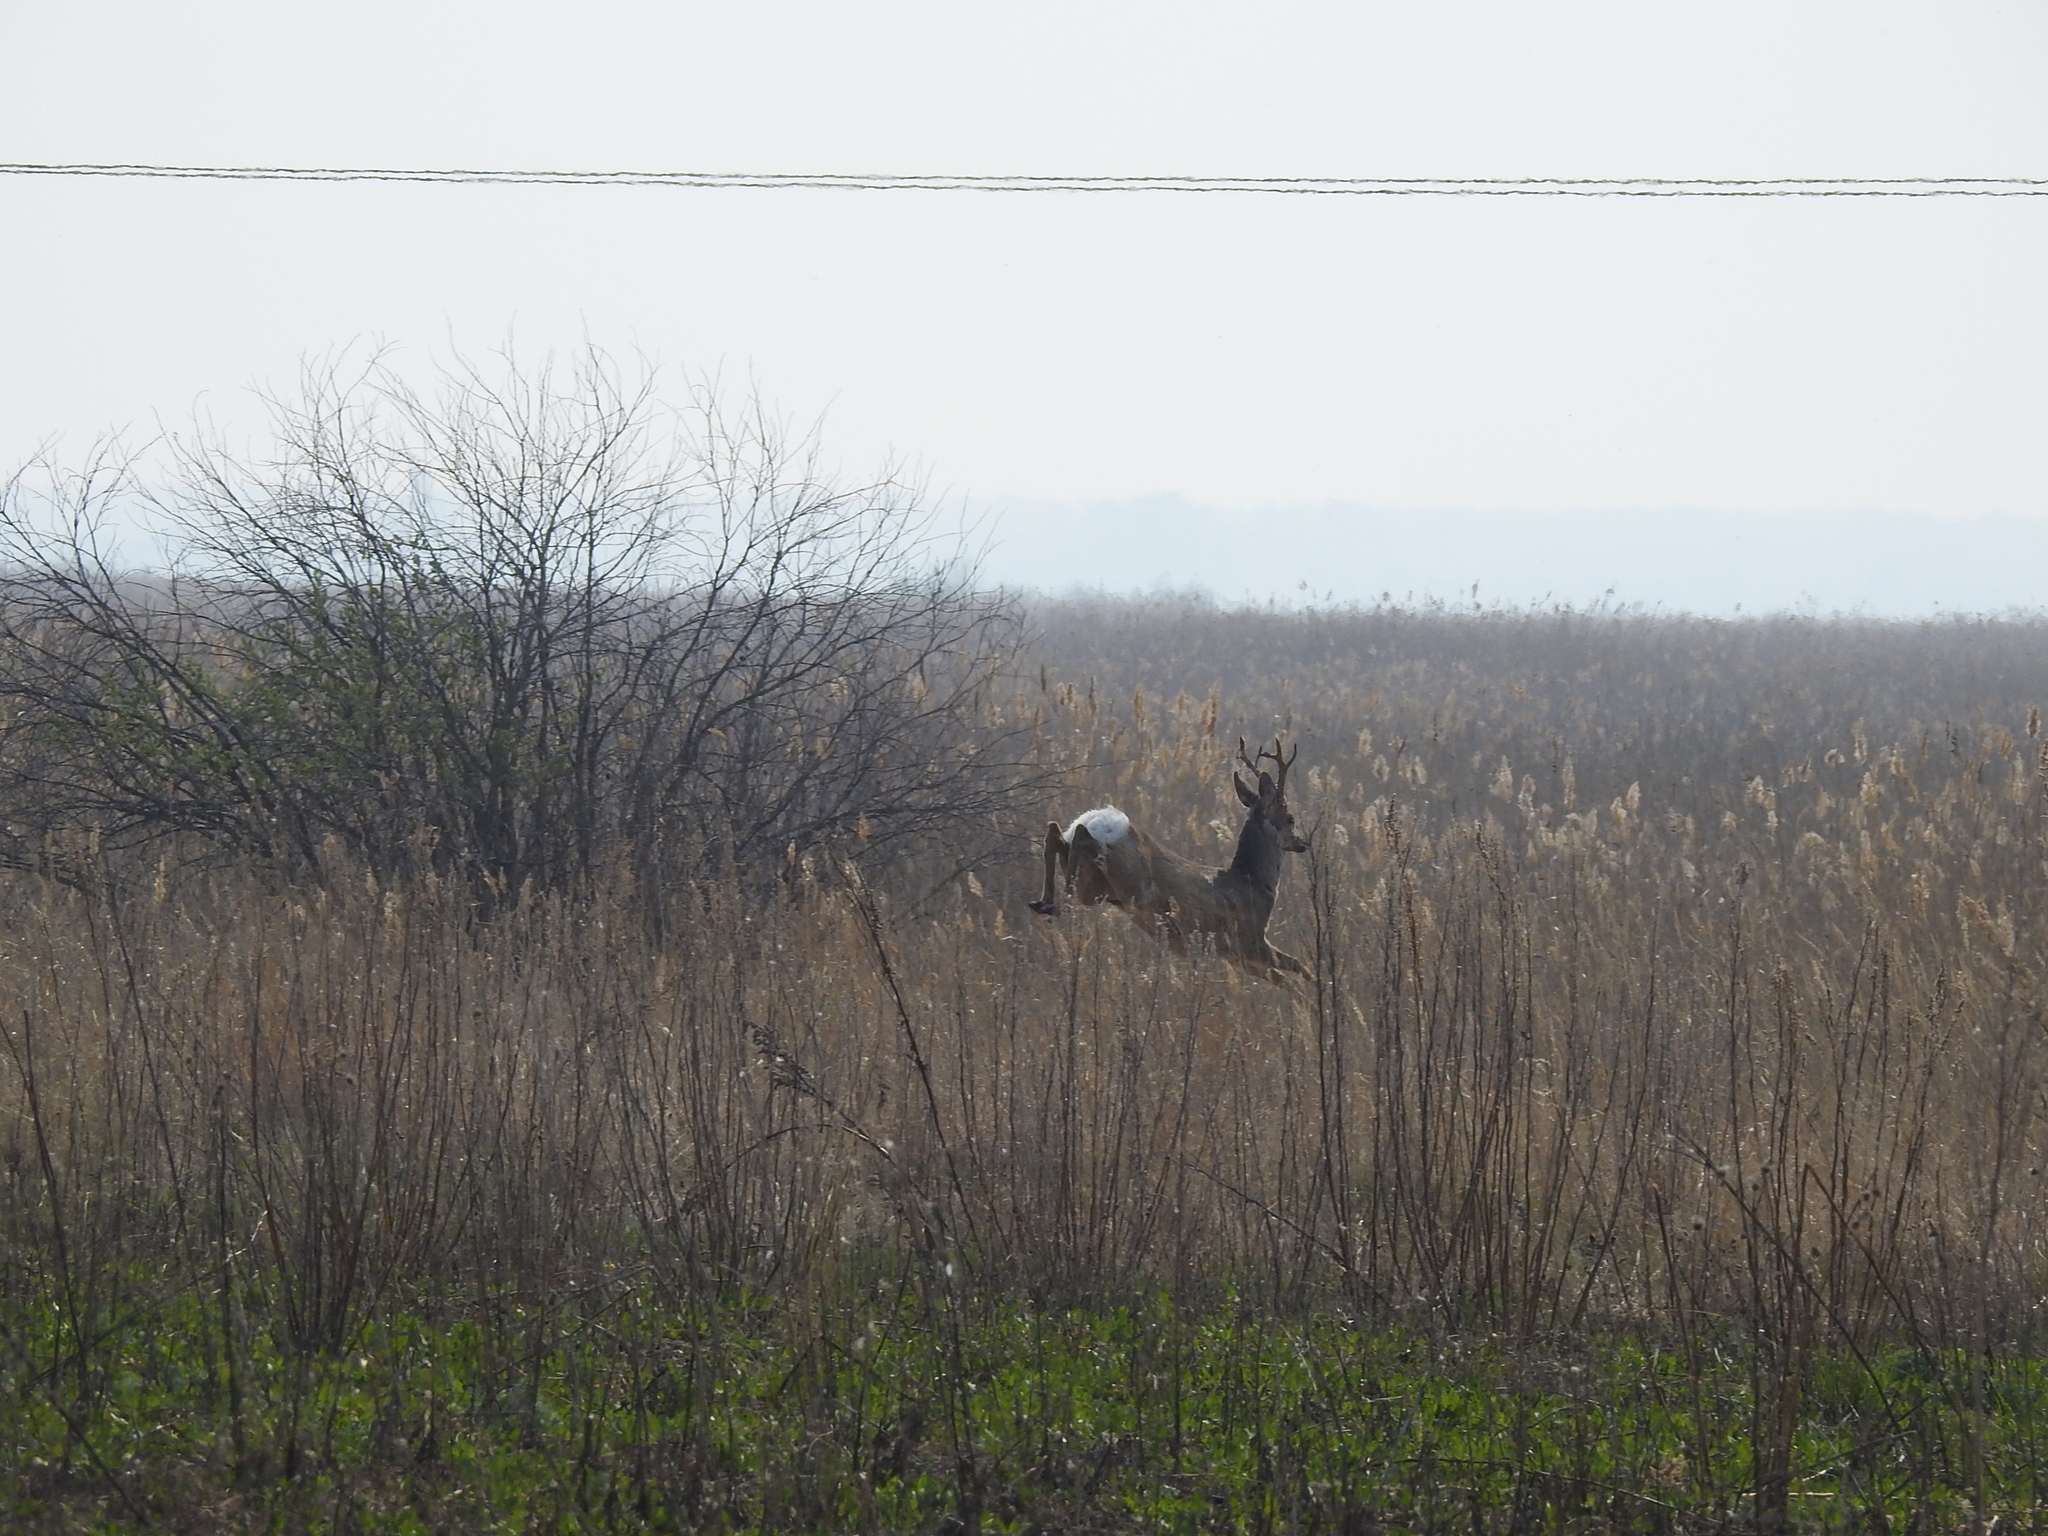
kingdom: Animalia
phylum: Chordata
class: Mammalia
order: Artiodactyla
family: Cervidae
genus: Capreolus
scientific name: Capreolus pygargus
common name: Siberian roe
